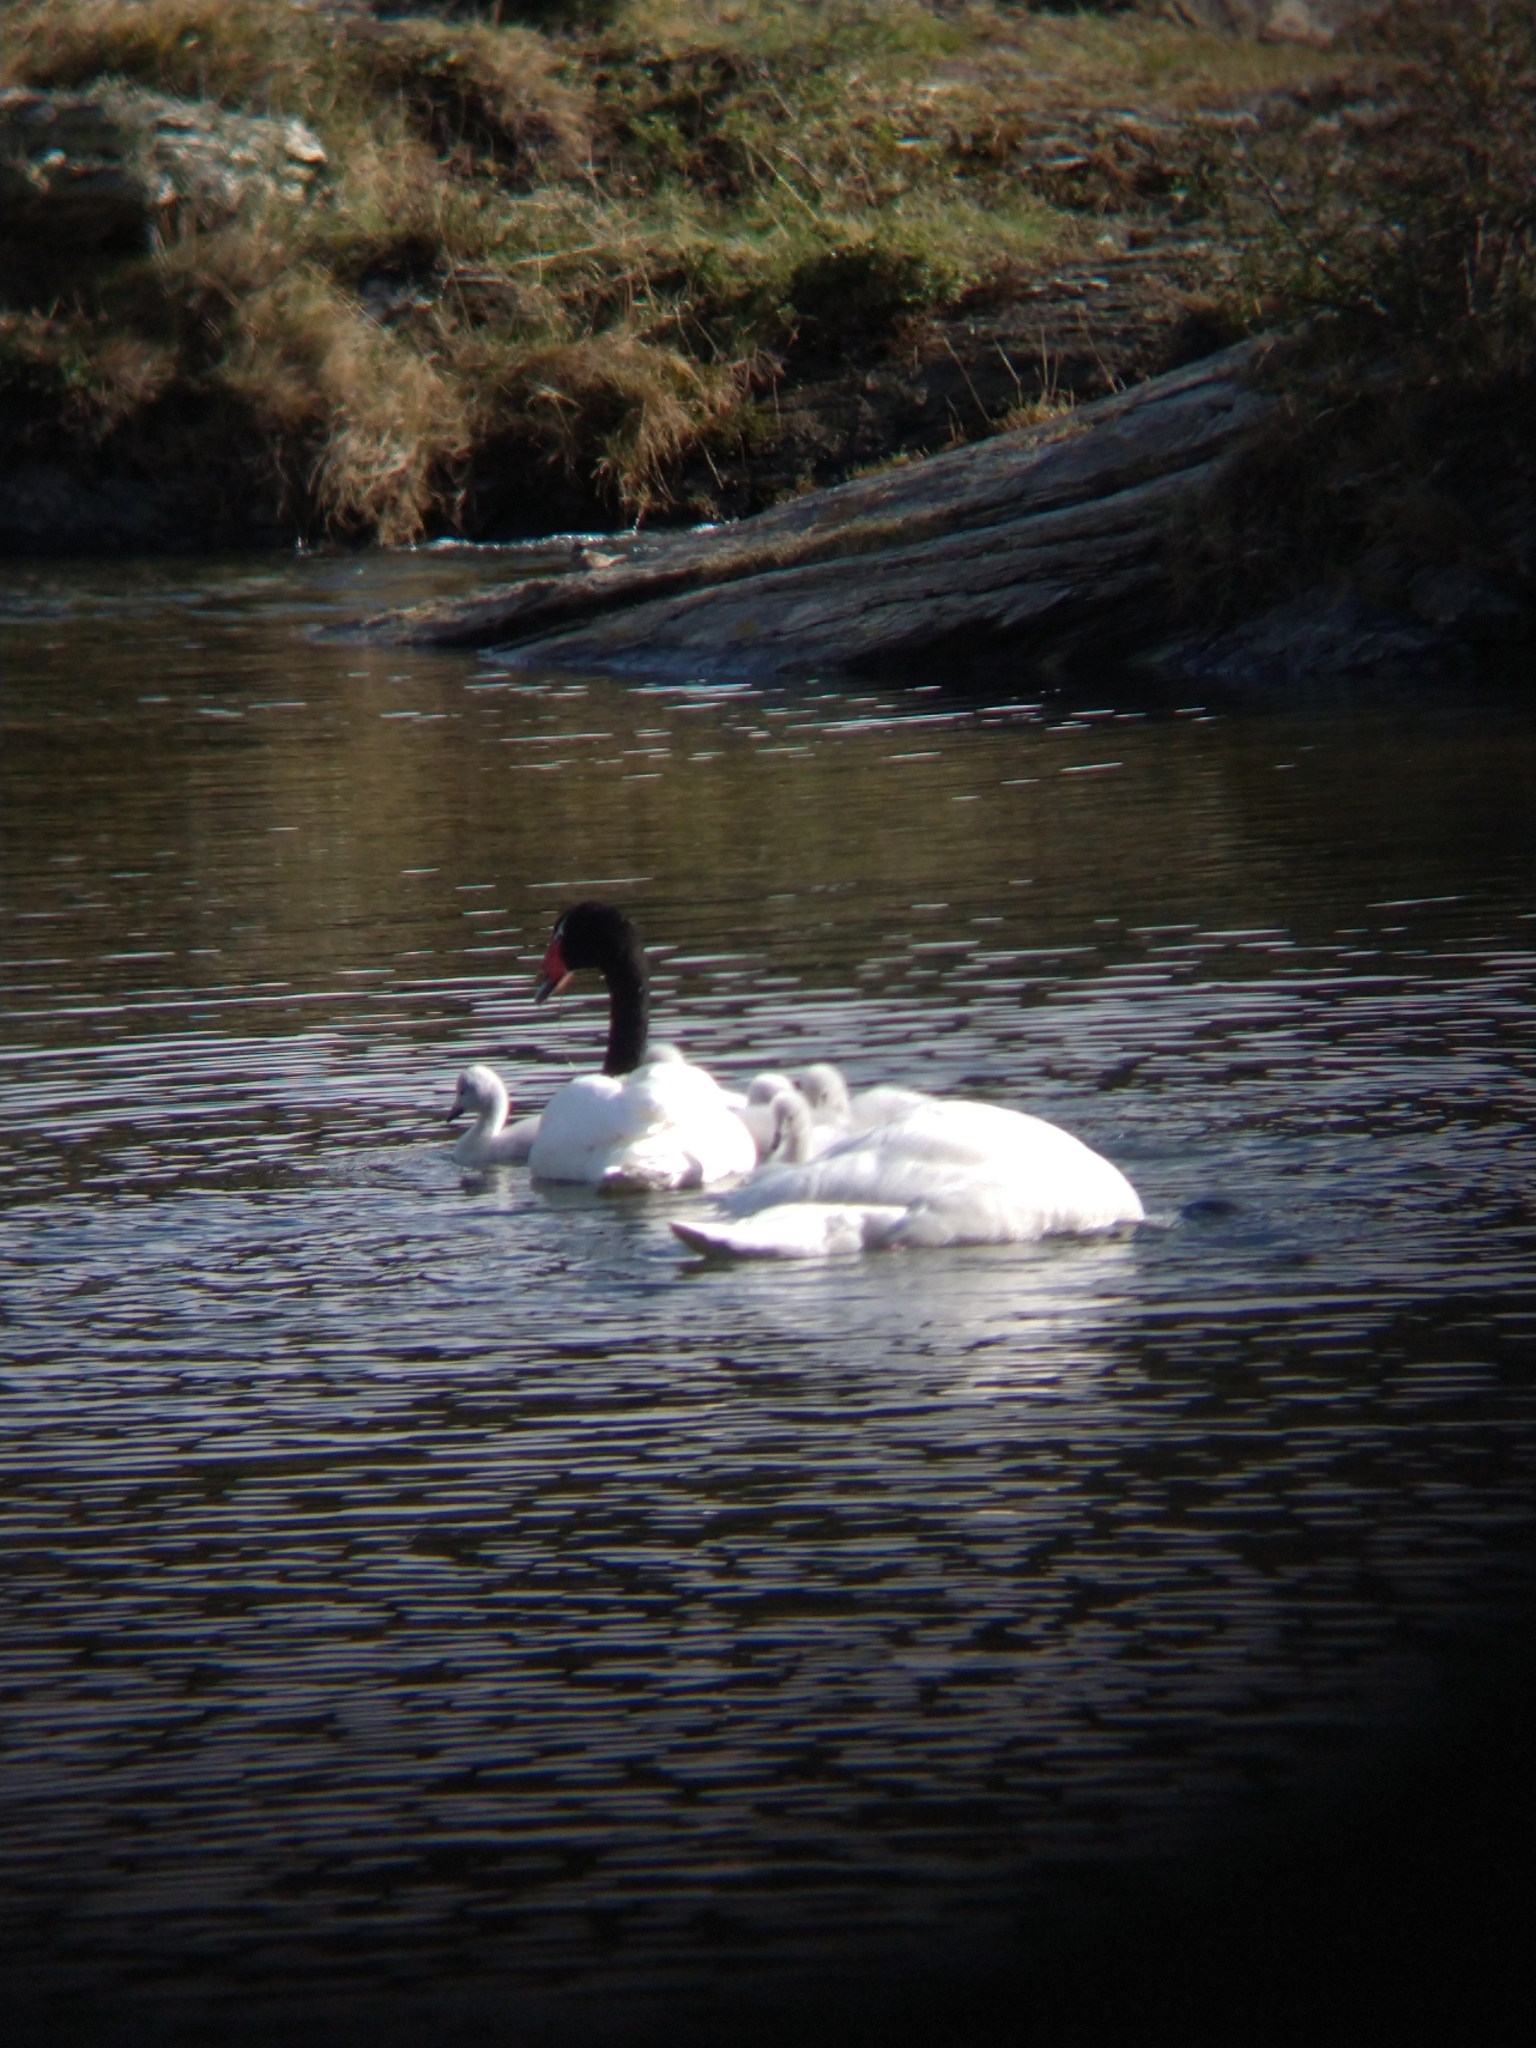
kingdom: Animalia
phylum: Chordata
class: Aves
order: Anseriformes
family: Anatidae
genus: Cygnus
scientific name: Cygnus melancoryphus
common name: Black-necked swan
